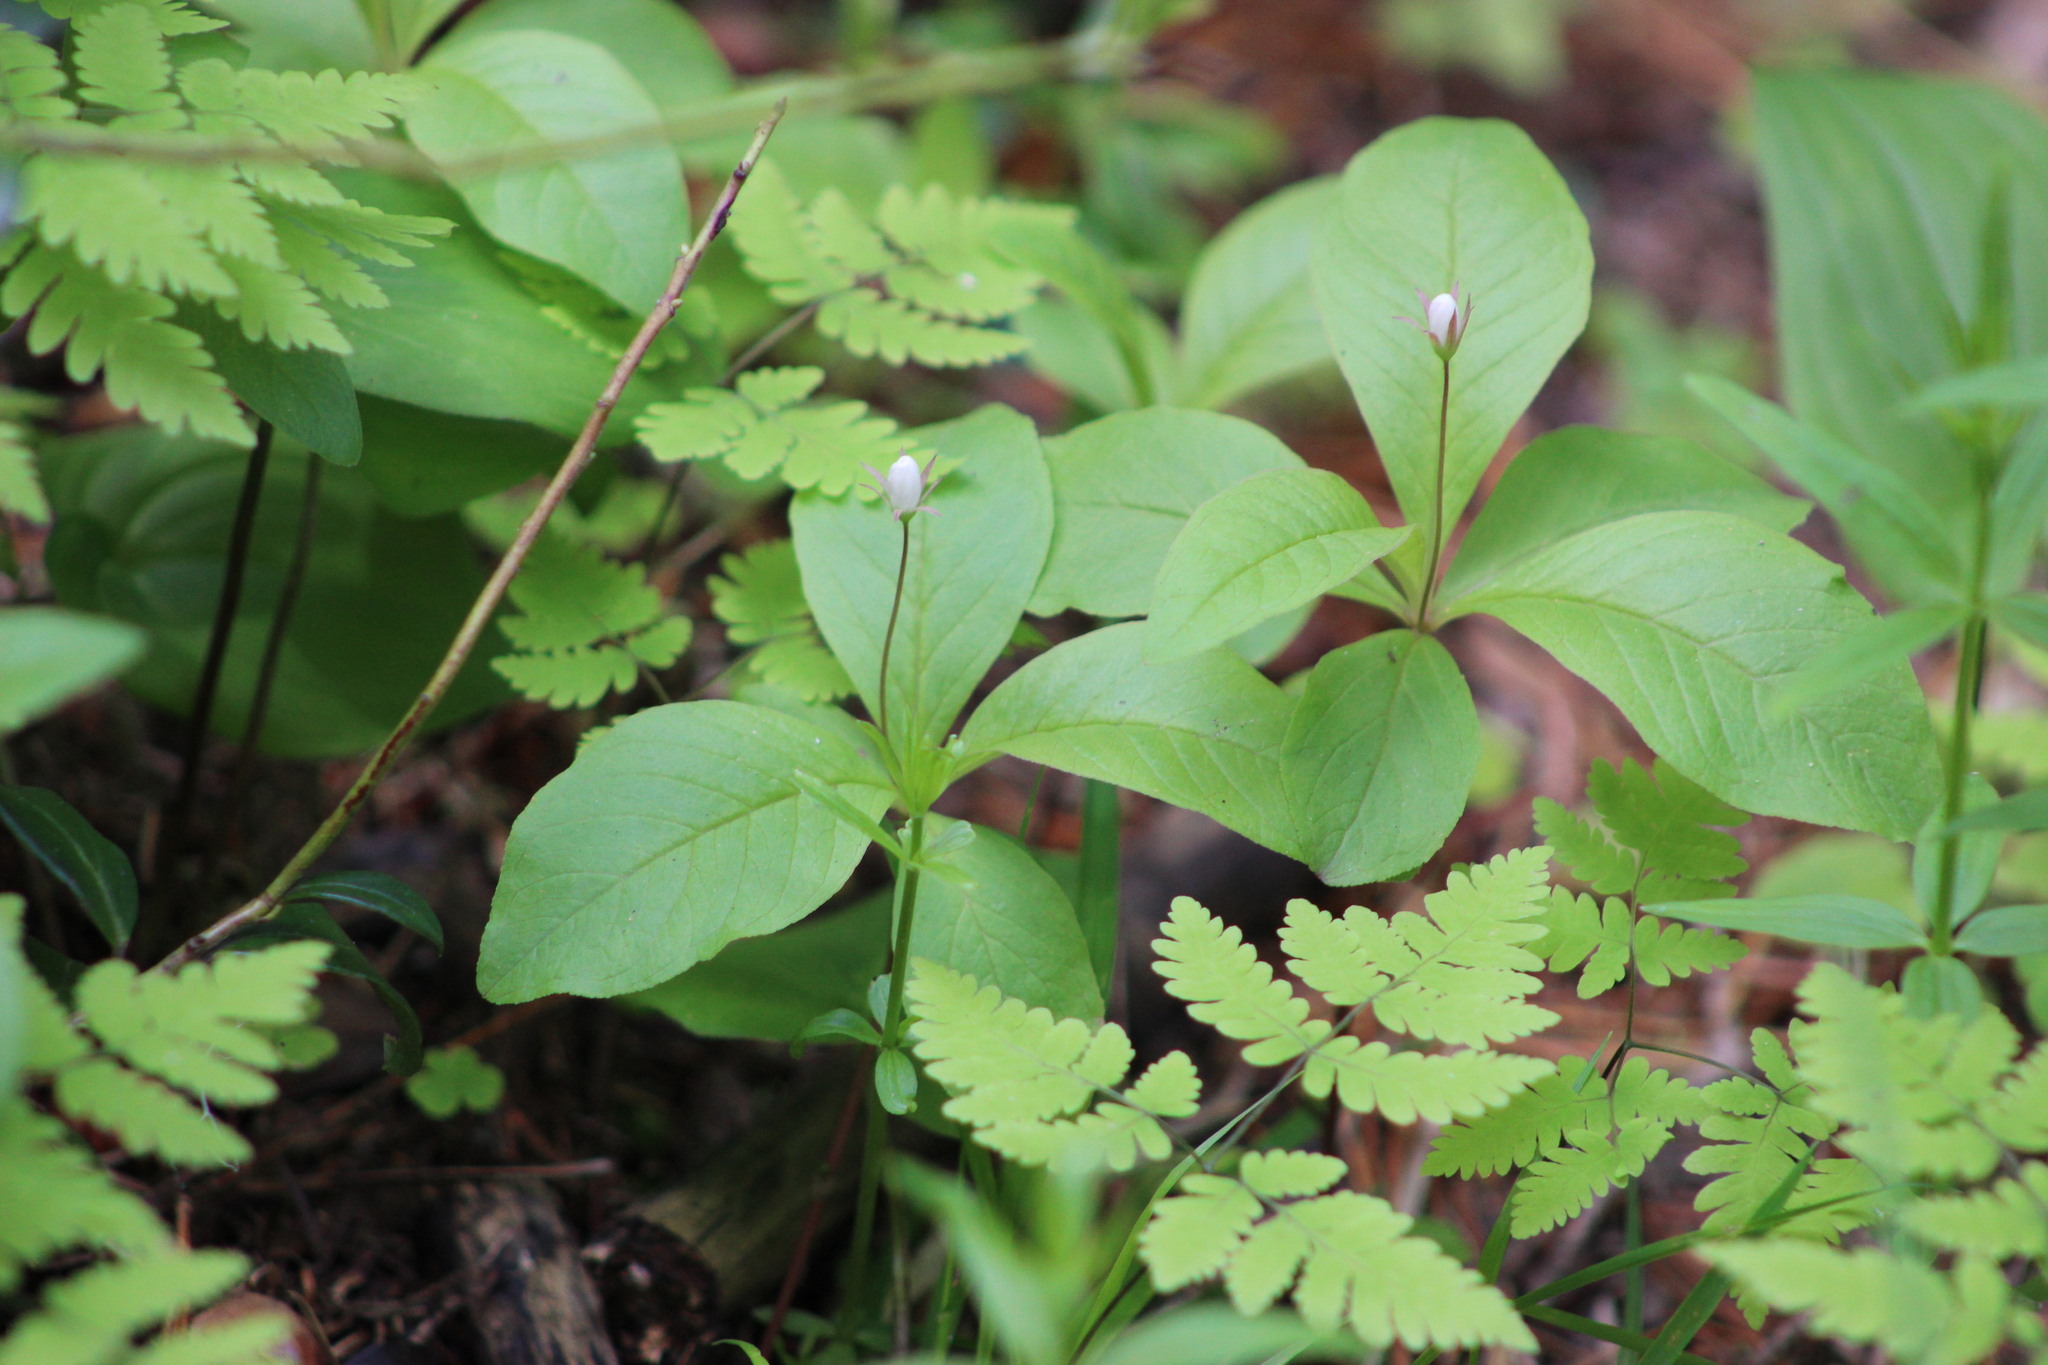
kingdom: Plantae
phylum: Tracheophyta
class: Magnoliopsida
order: Ericales
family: Primulaceae
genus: Lysimachia
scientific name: Lysimachia europaea
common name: Arctic starflower
